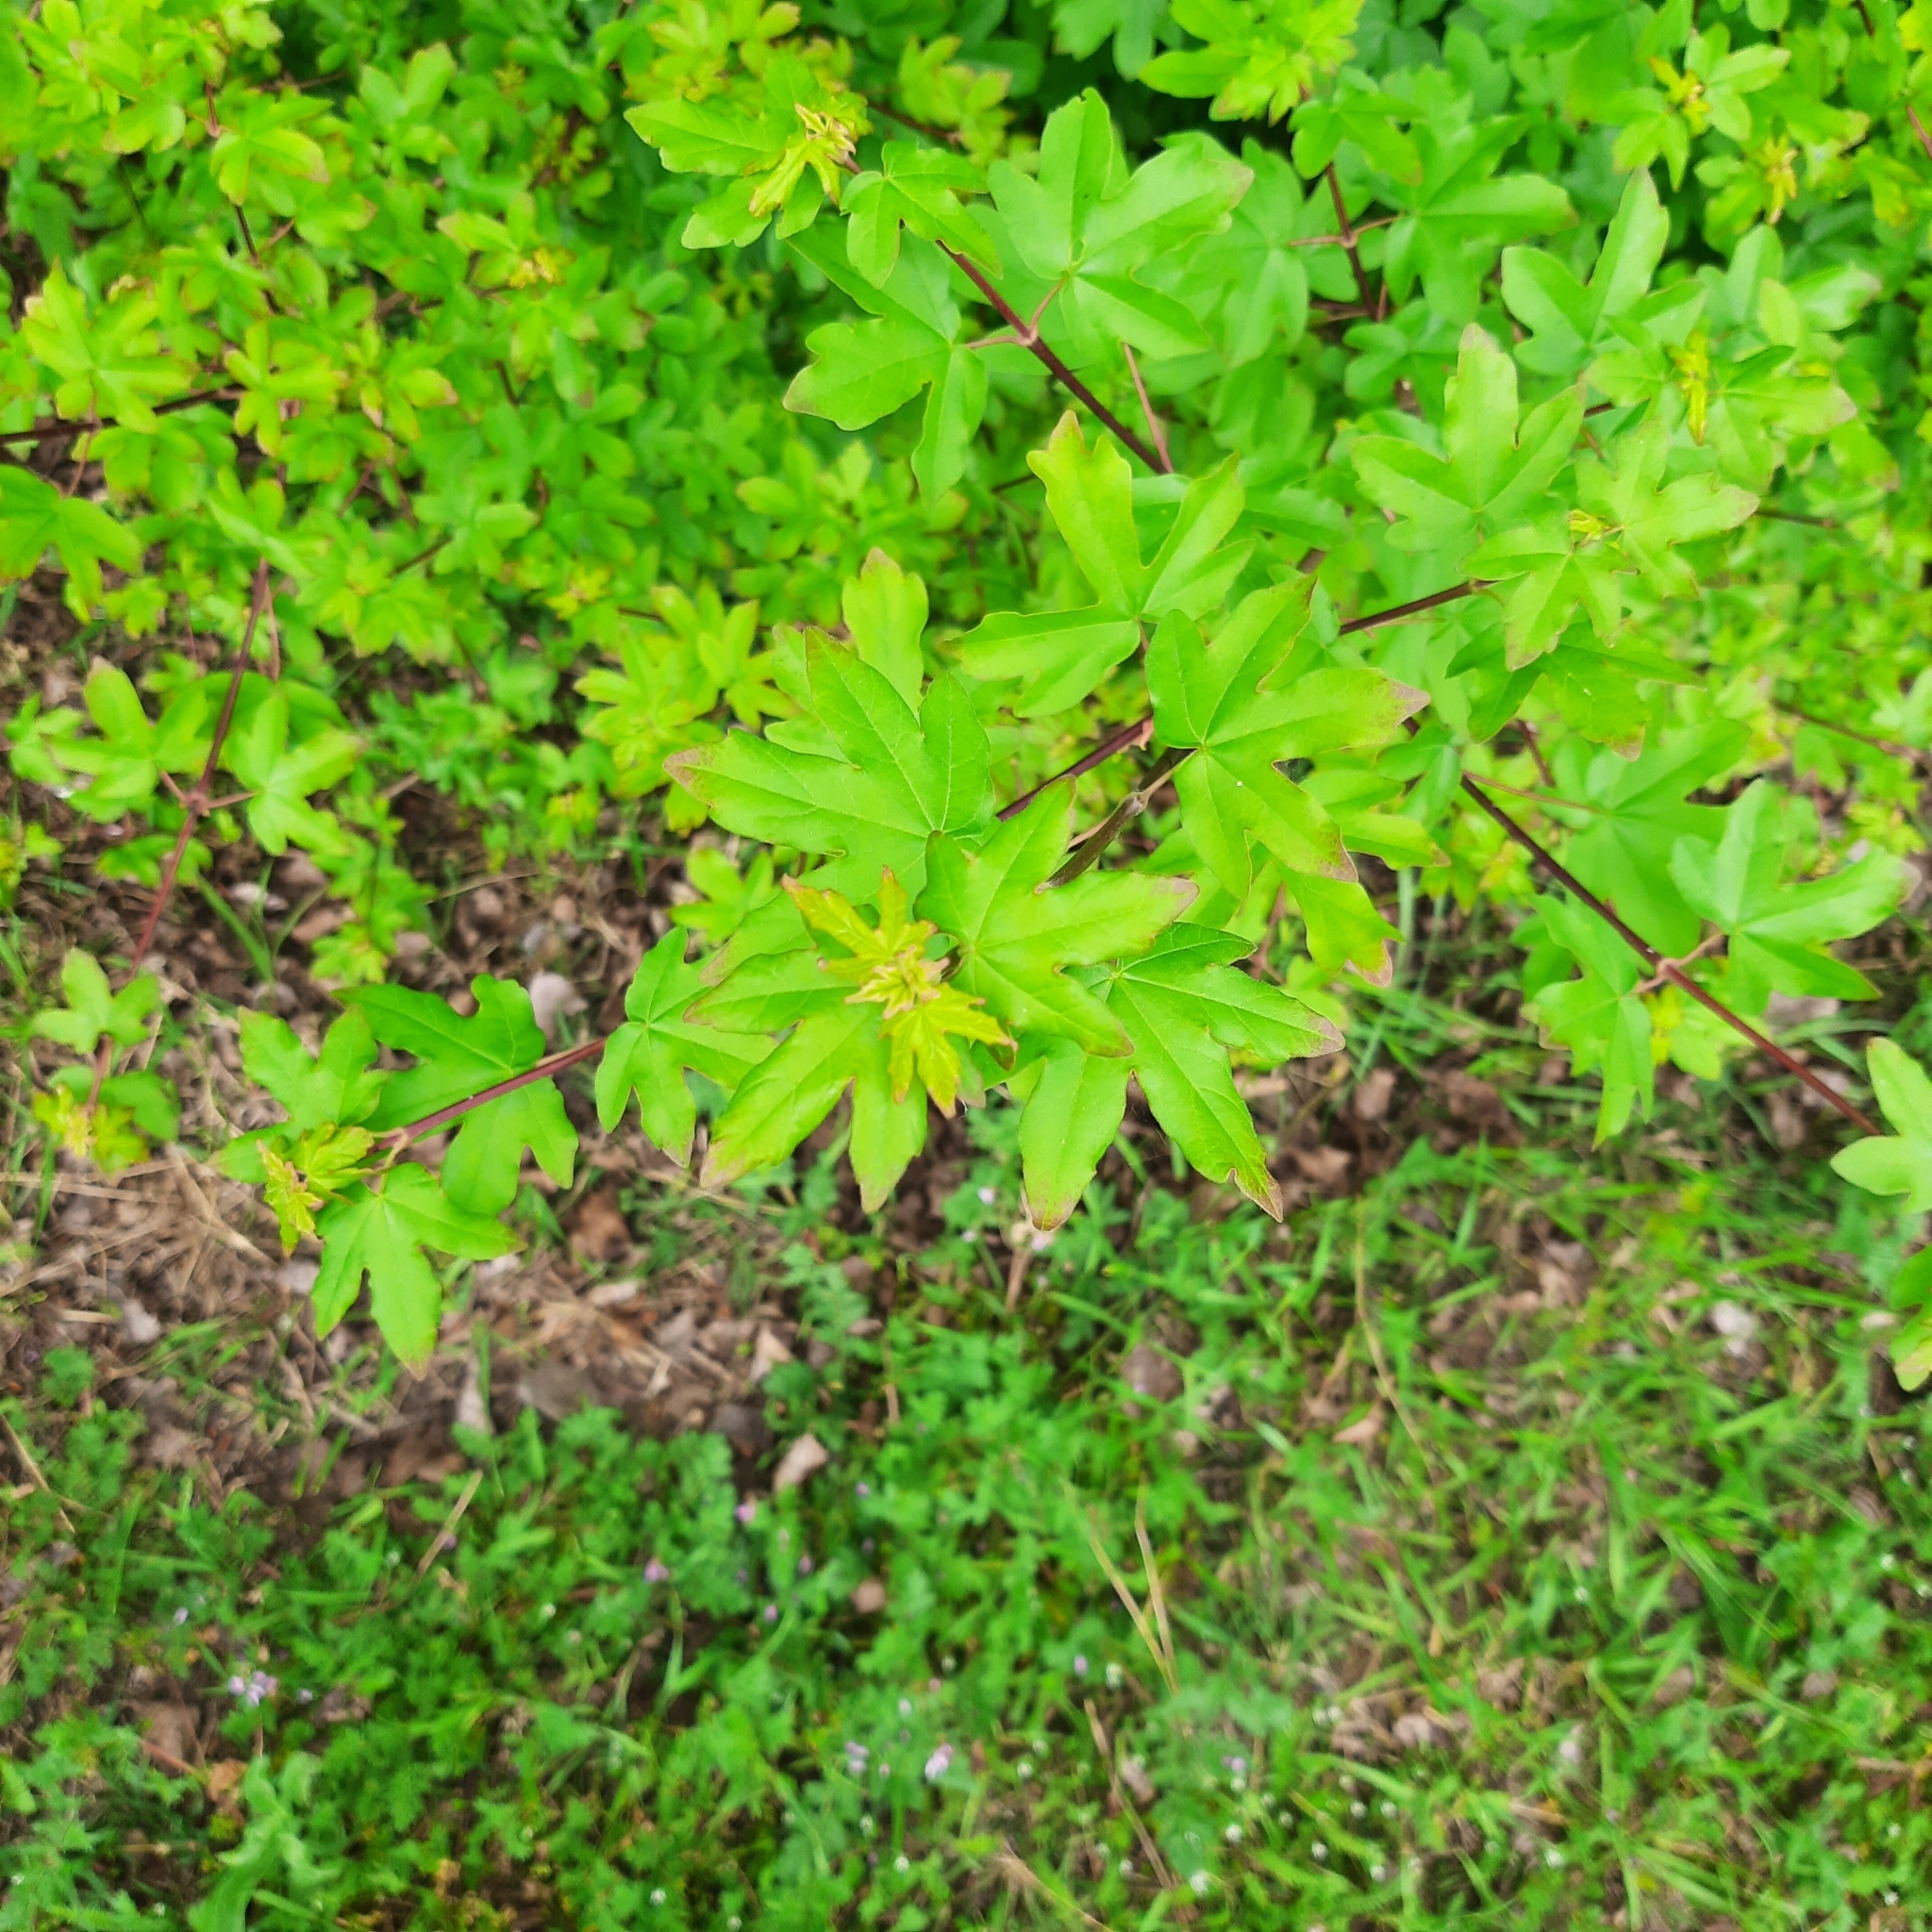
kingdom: Plantae
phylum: Tracheophyta
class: Magnoliopsida
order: Sapindales
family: Sapindaceae
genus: Acer
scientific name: Acer campestre
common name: Field maple
